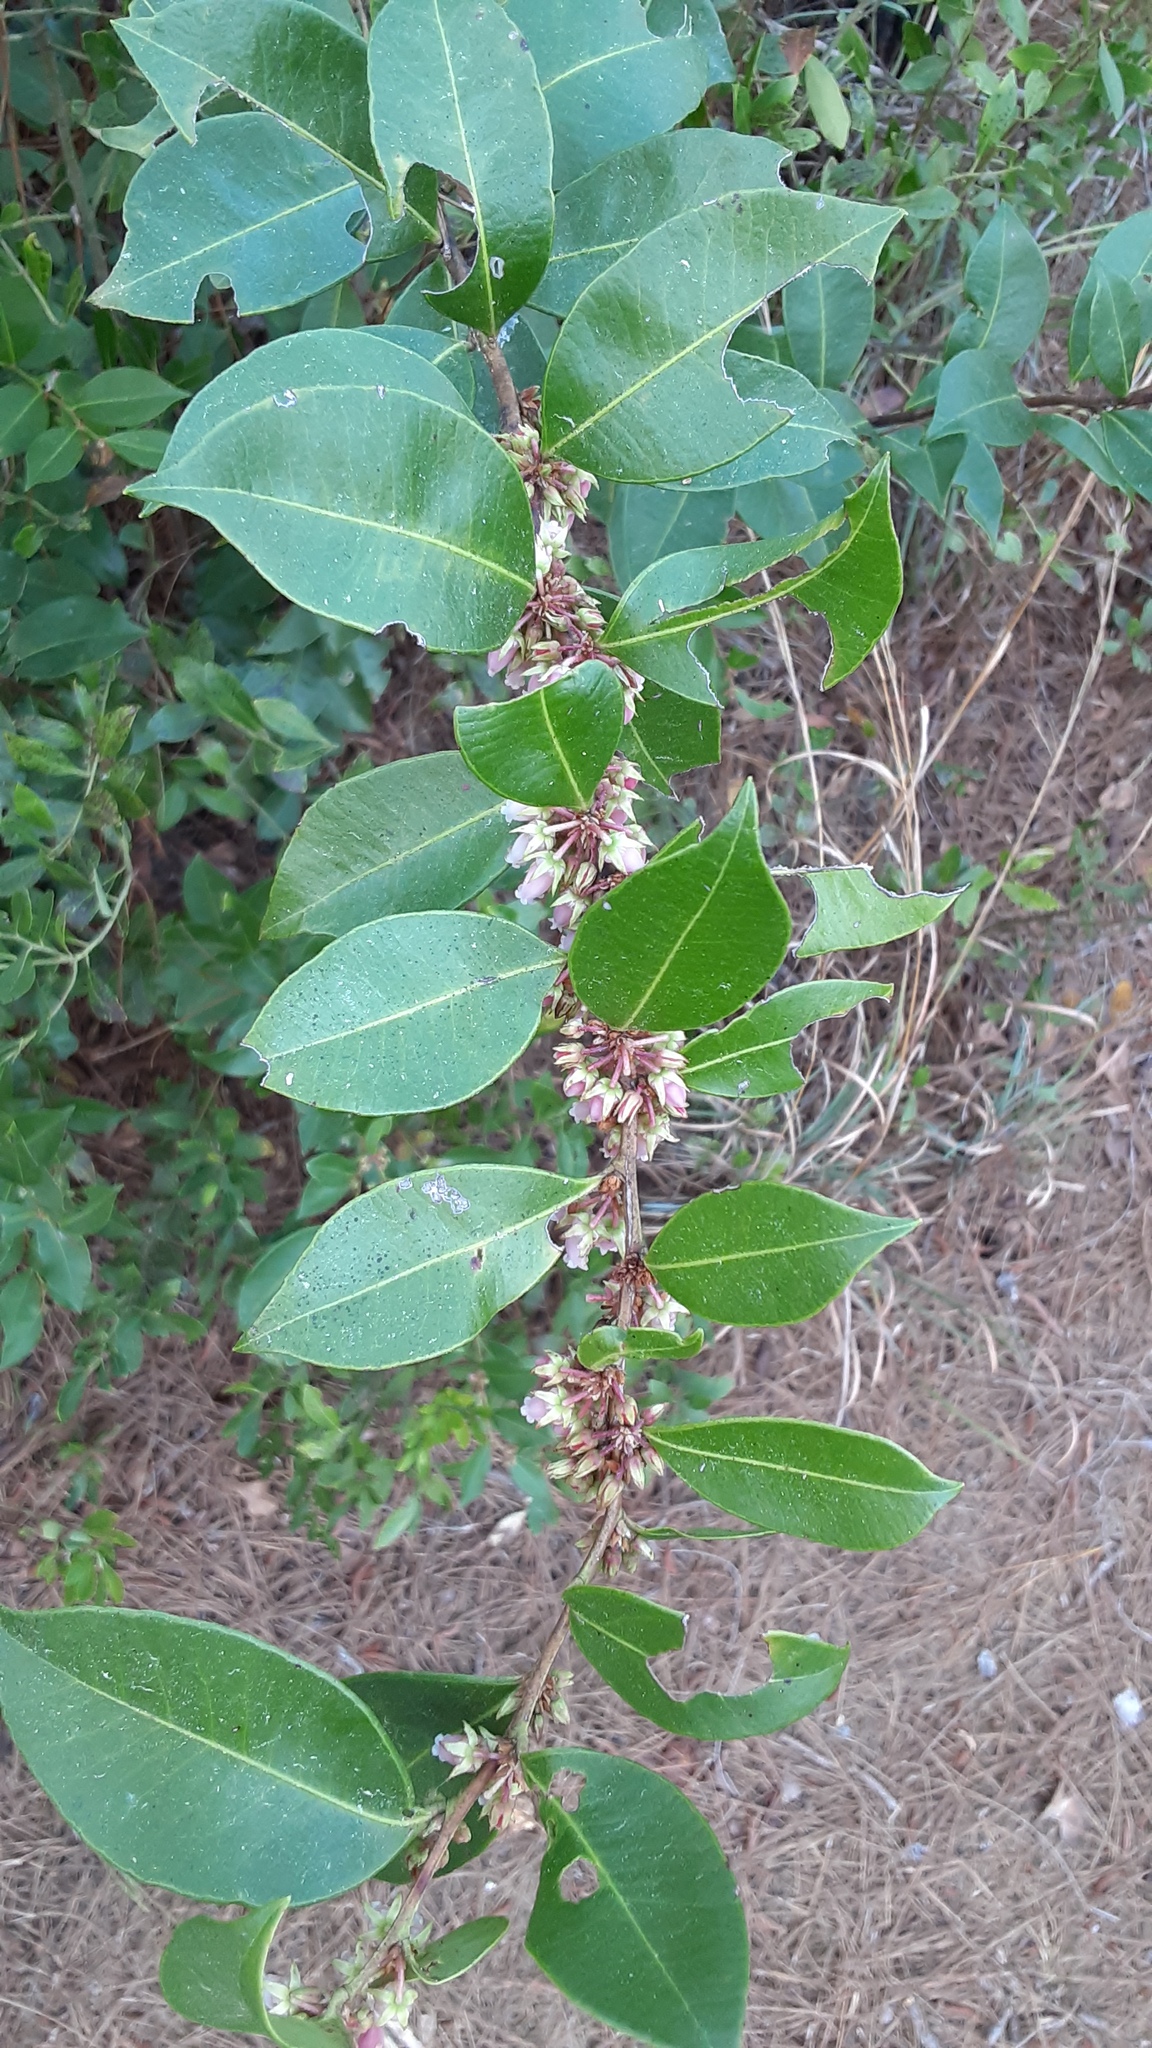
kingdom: Plantae
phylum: Tracheophyta
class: Magnoliopsida
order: Ericales
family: Ericaceae
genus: Lyonia
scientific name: Lyonia lucida
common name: Fetterbush
